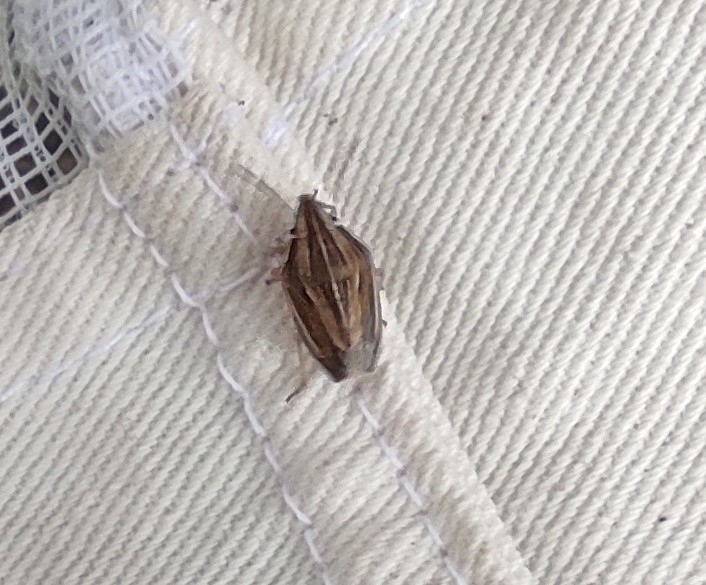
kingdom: Animalia
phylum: Arthropoda
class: Insecta
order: Hemiptera
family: Pentatomidae
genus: Aelia
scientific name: Aelia acuminata
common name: Bishop's mitre
